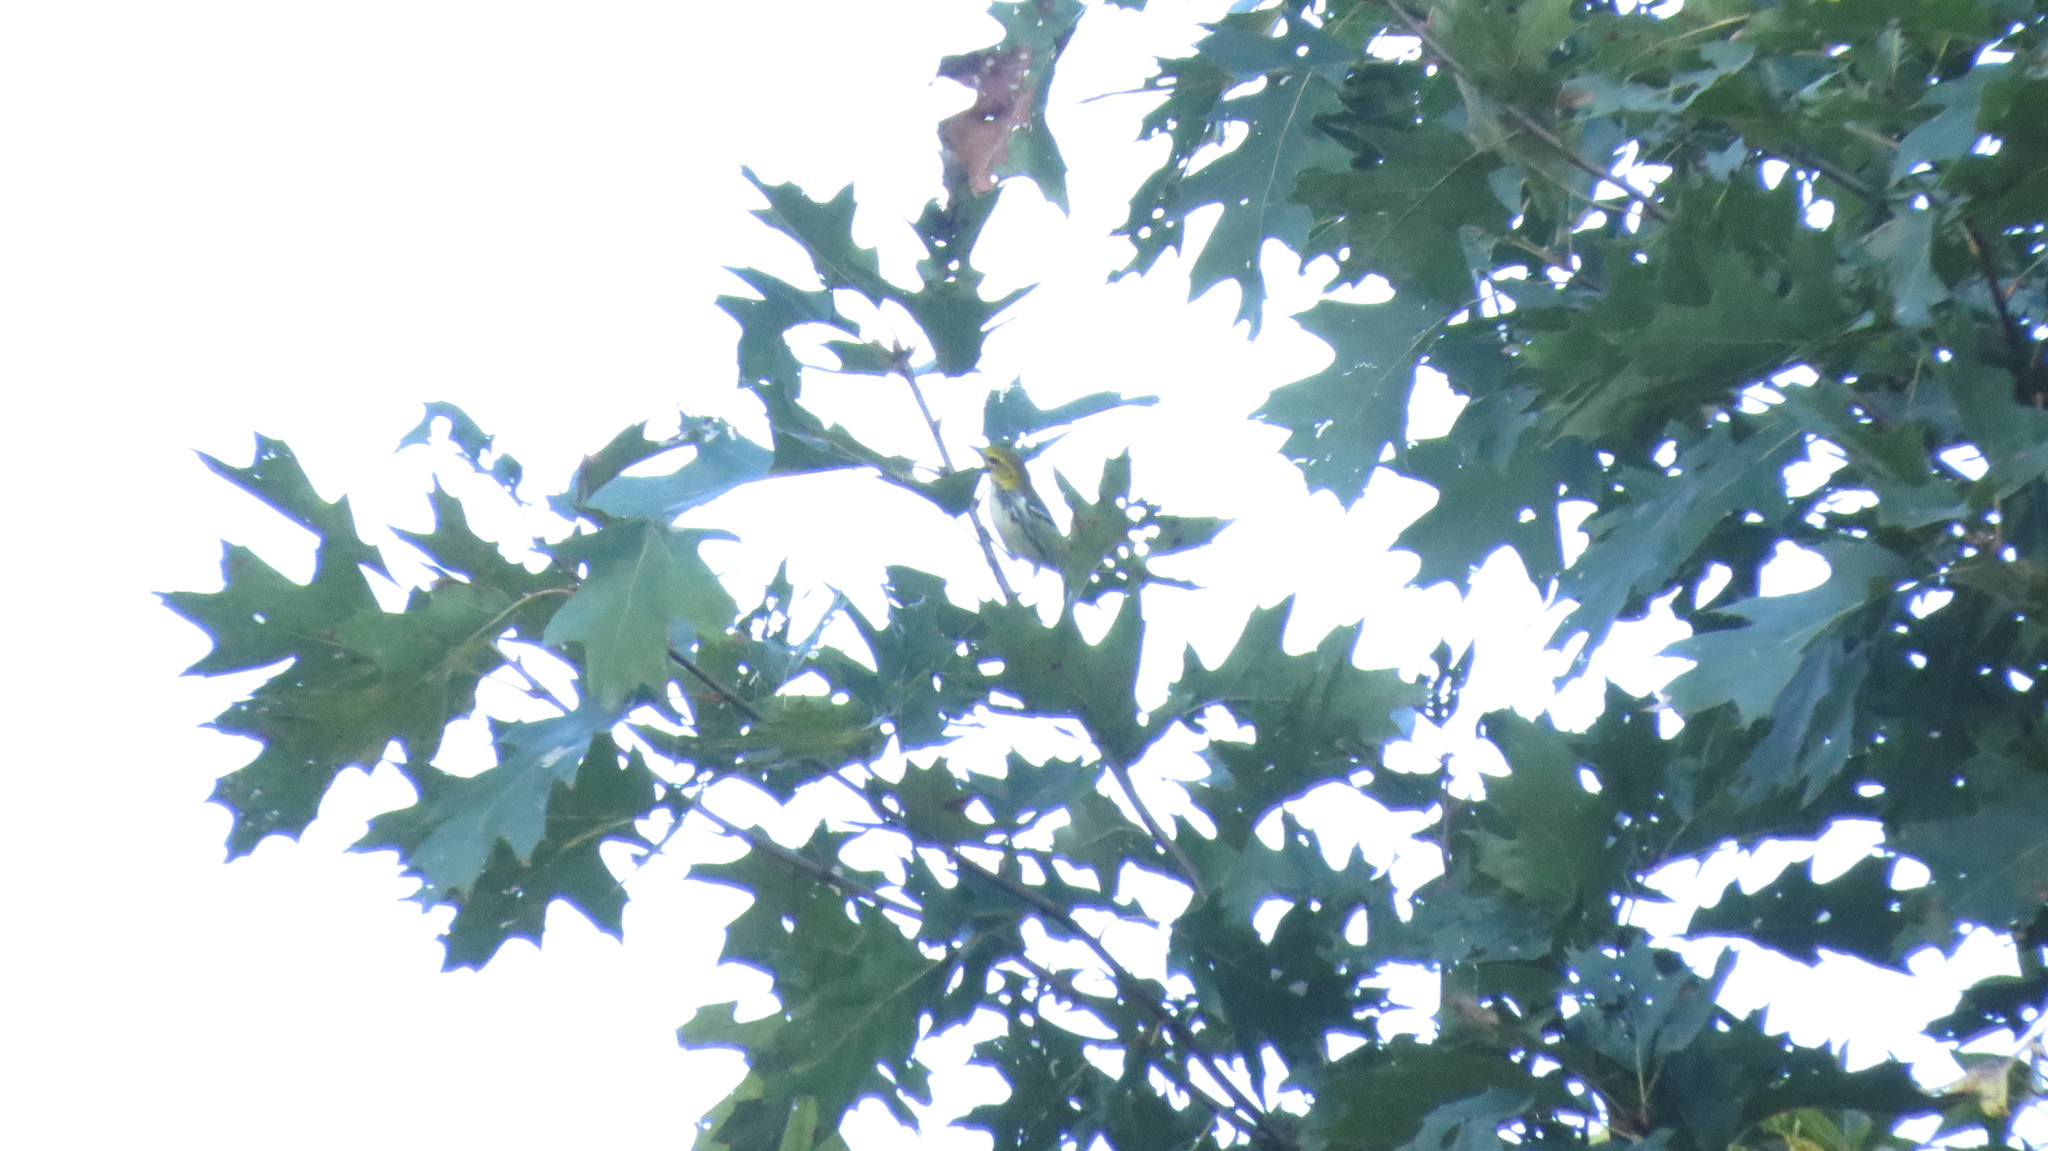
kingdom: Animalia
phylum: Chordata
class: Aves
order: Passeriformes
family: Parulidae
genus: Setophaga
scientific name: Setophaga virens
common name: Black-throated green warbler
